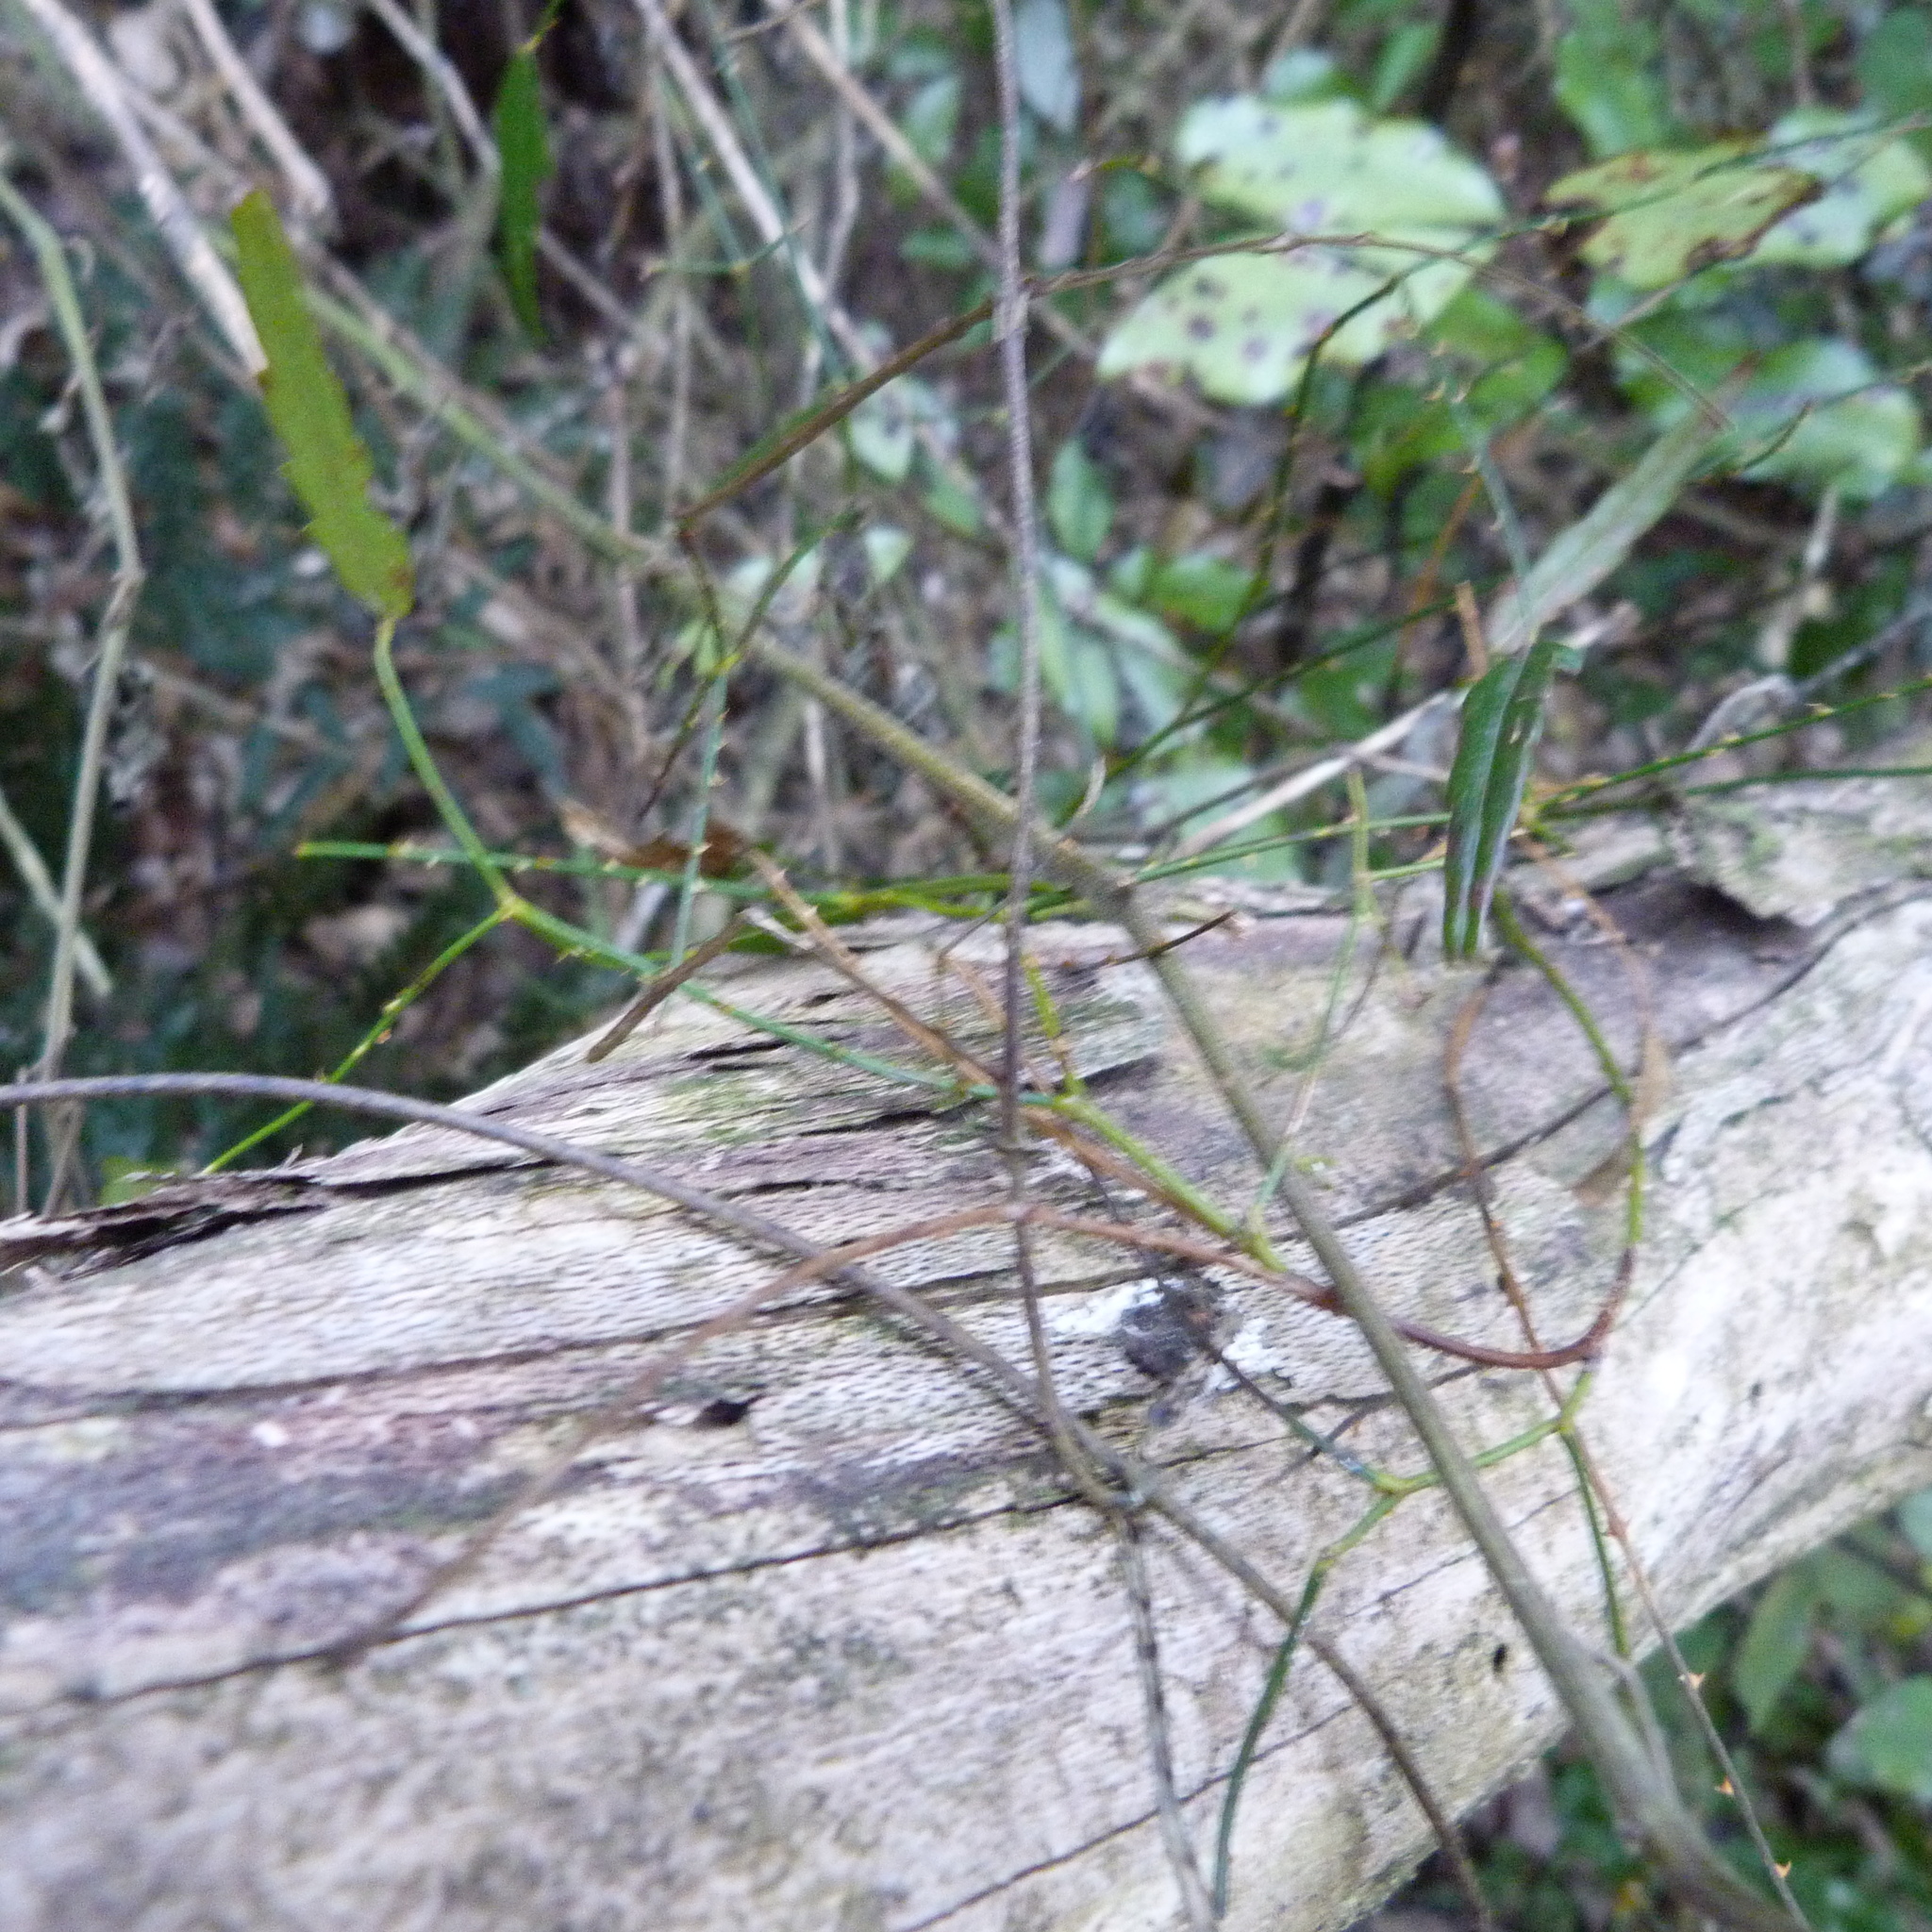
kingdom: Plantae
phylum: Tracheophyta
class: Magnoliopsida
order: Rosales
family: Rosaceae
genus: Rubus
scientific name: Rubus squarrosus
